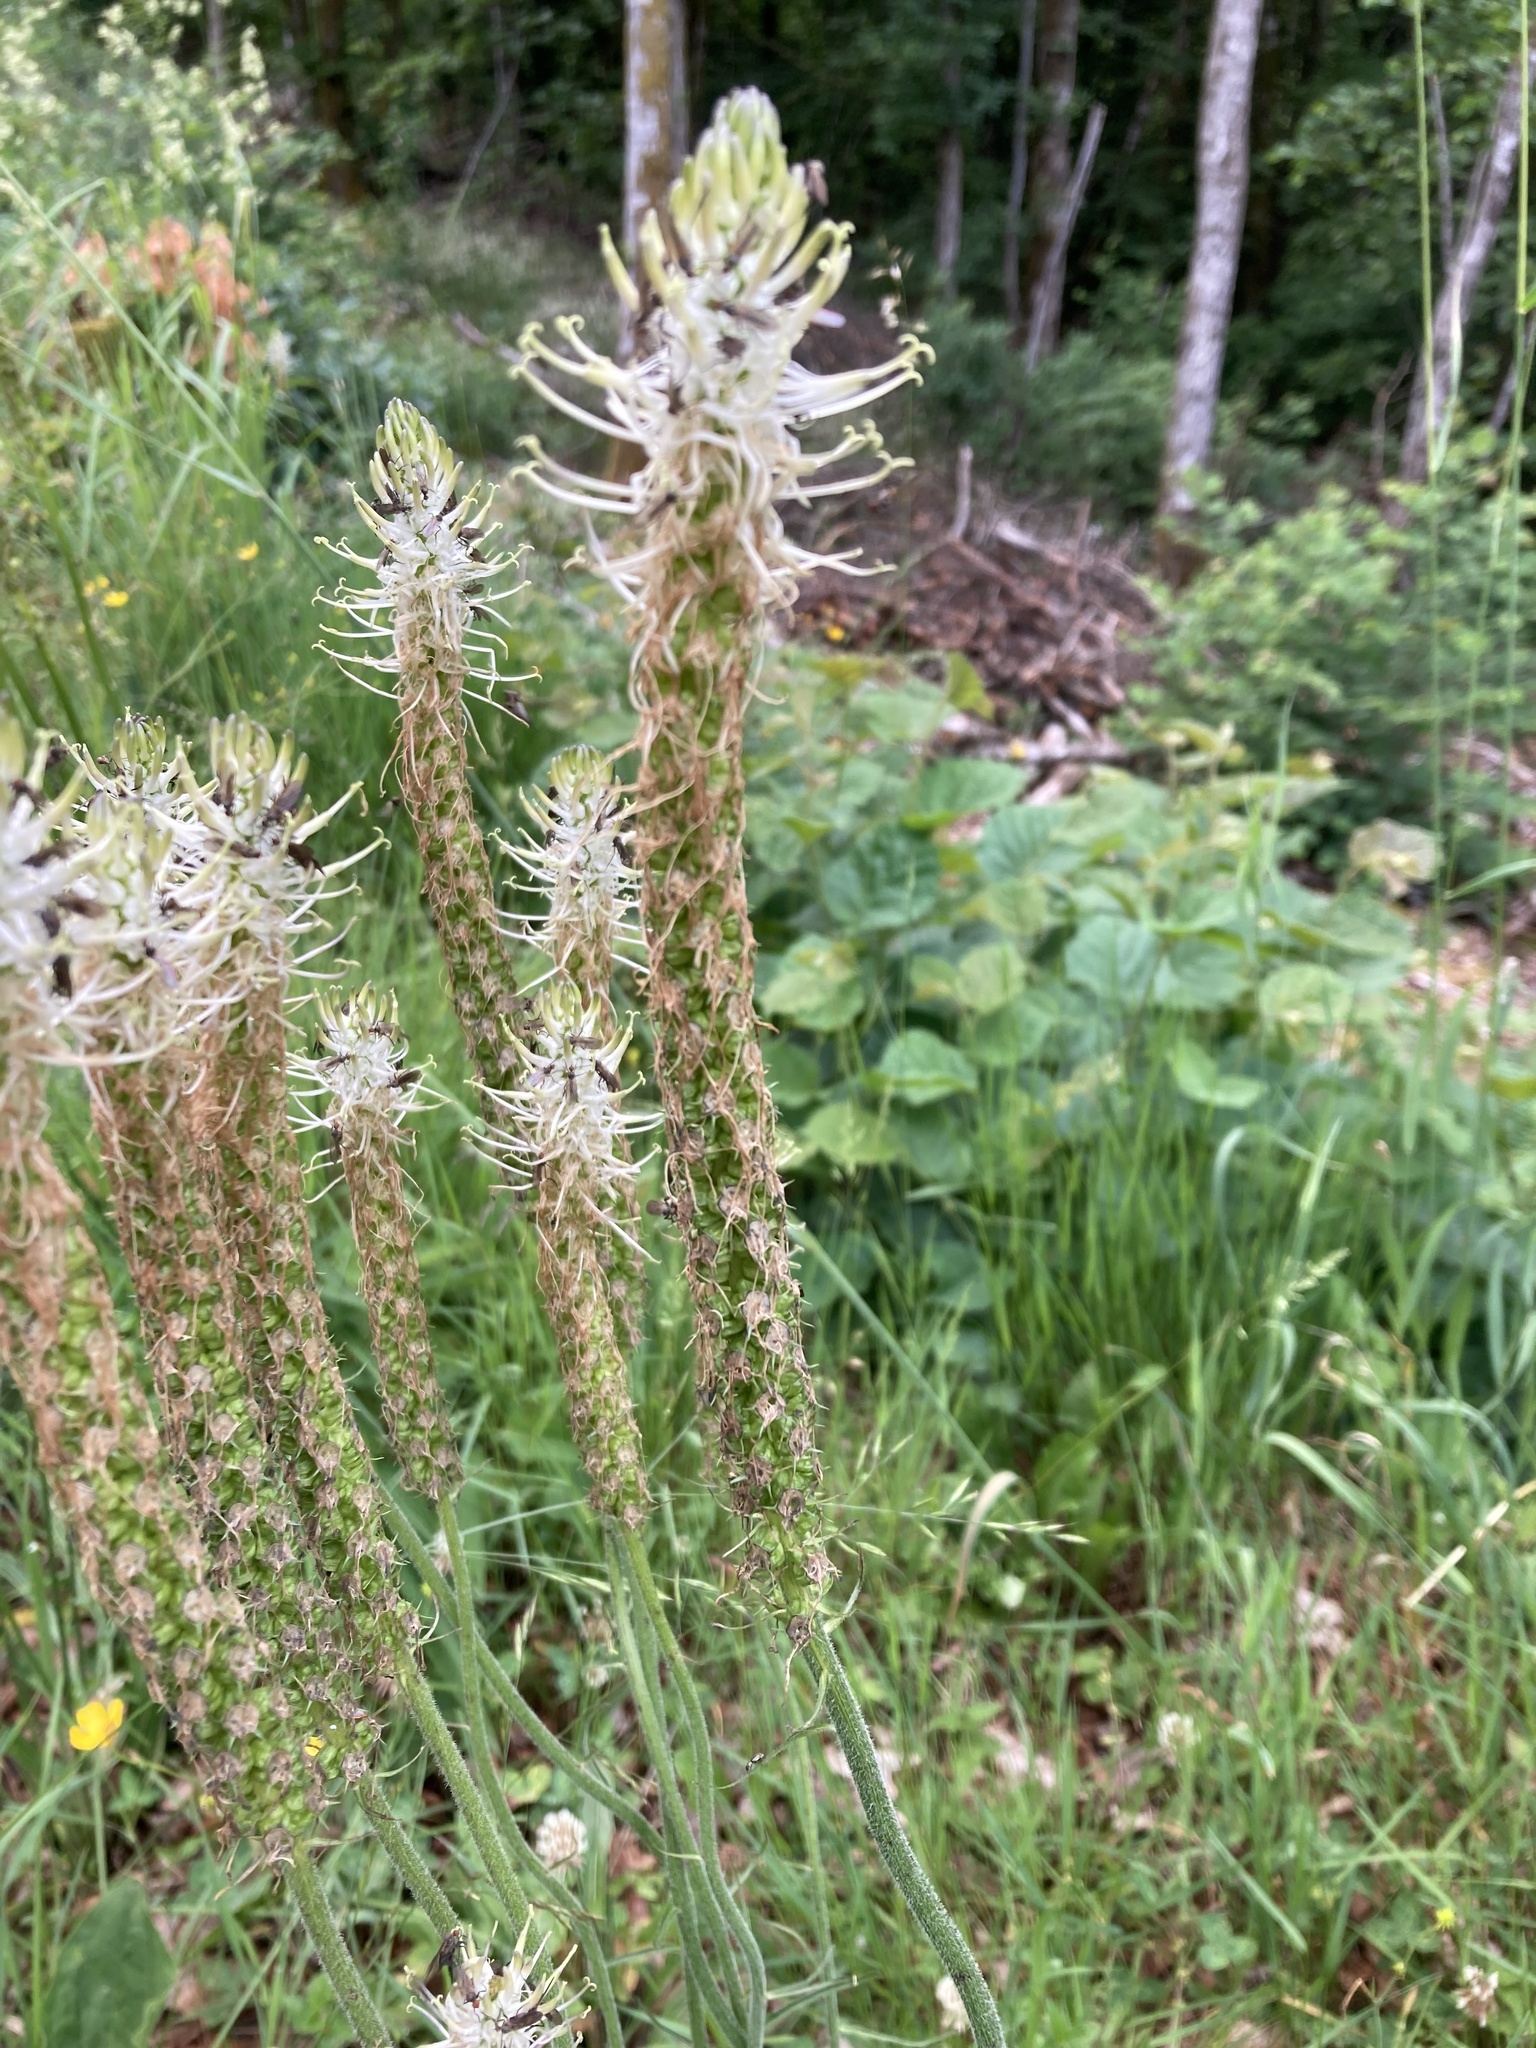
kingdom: Plantae
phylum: Tracheophyta
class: Magnoliopsida
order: Asterales
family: Campanulaceae
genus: Phyteuma
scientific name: Phyteuma spicatum
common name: Spiked rampion
